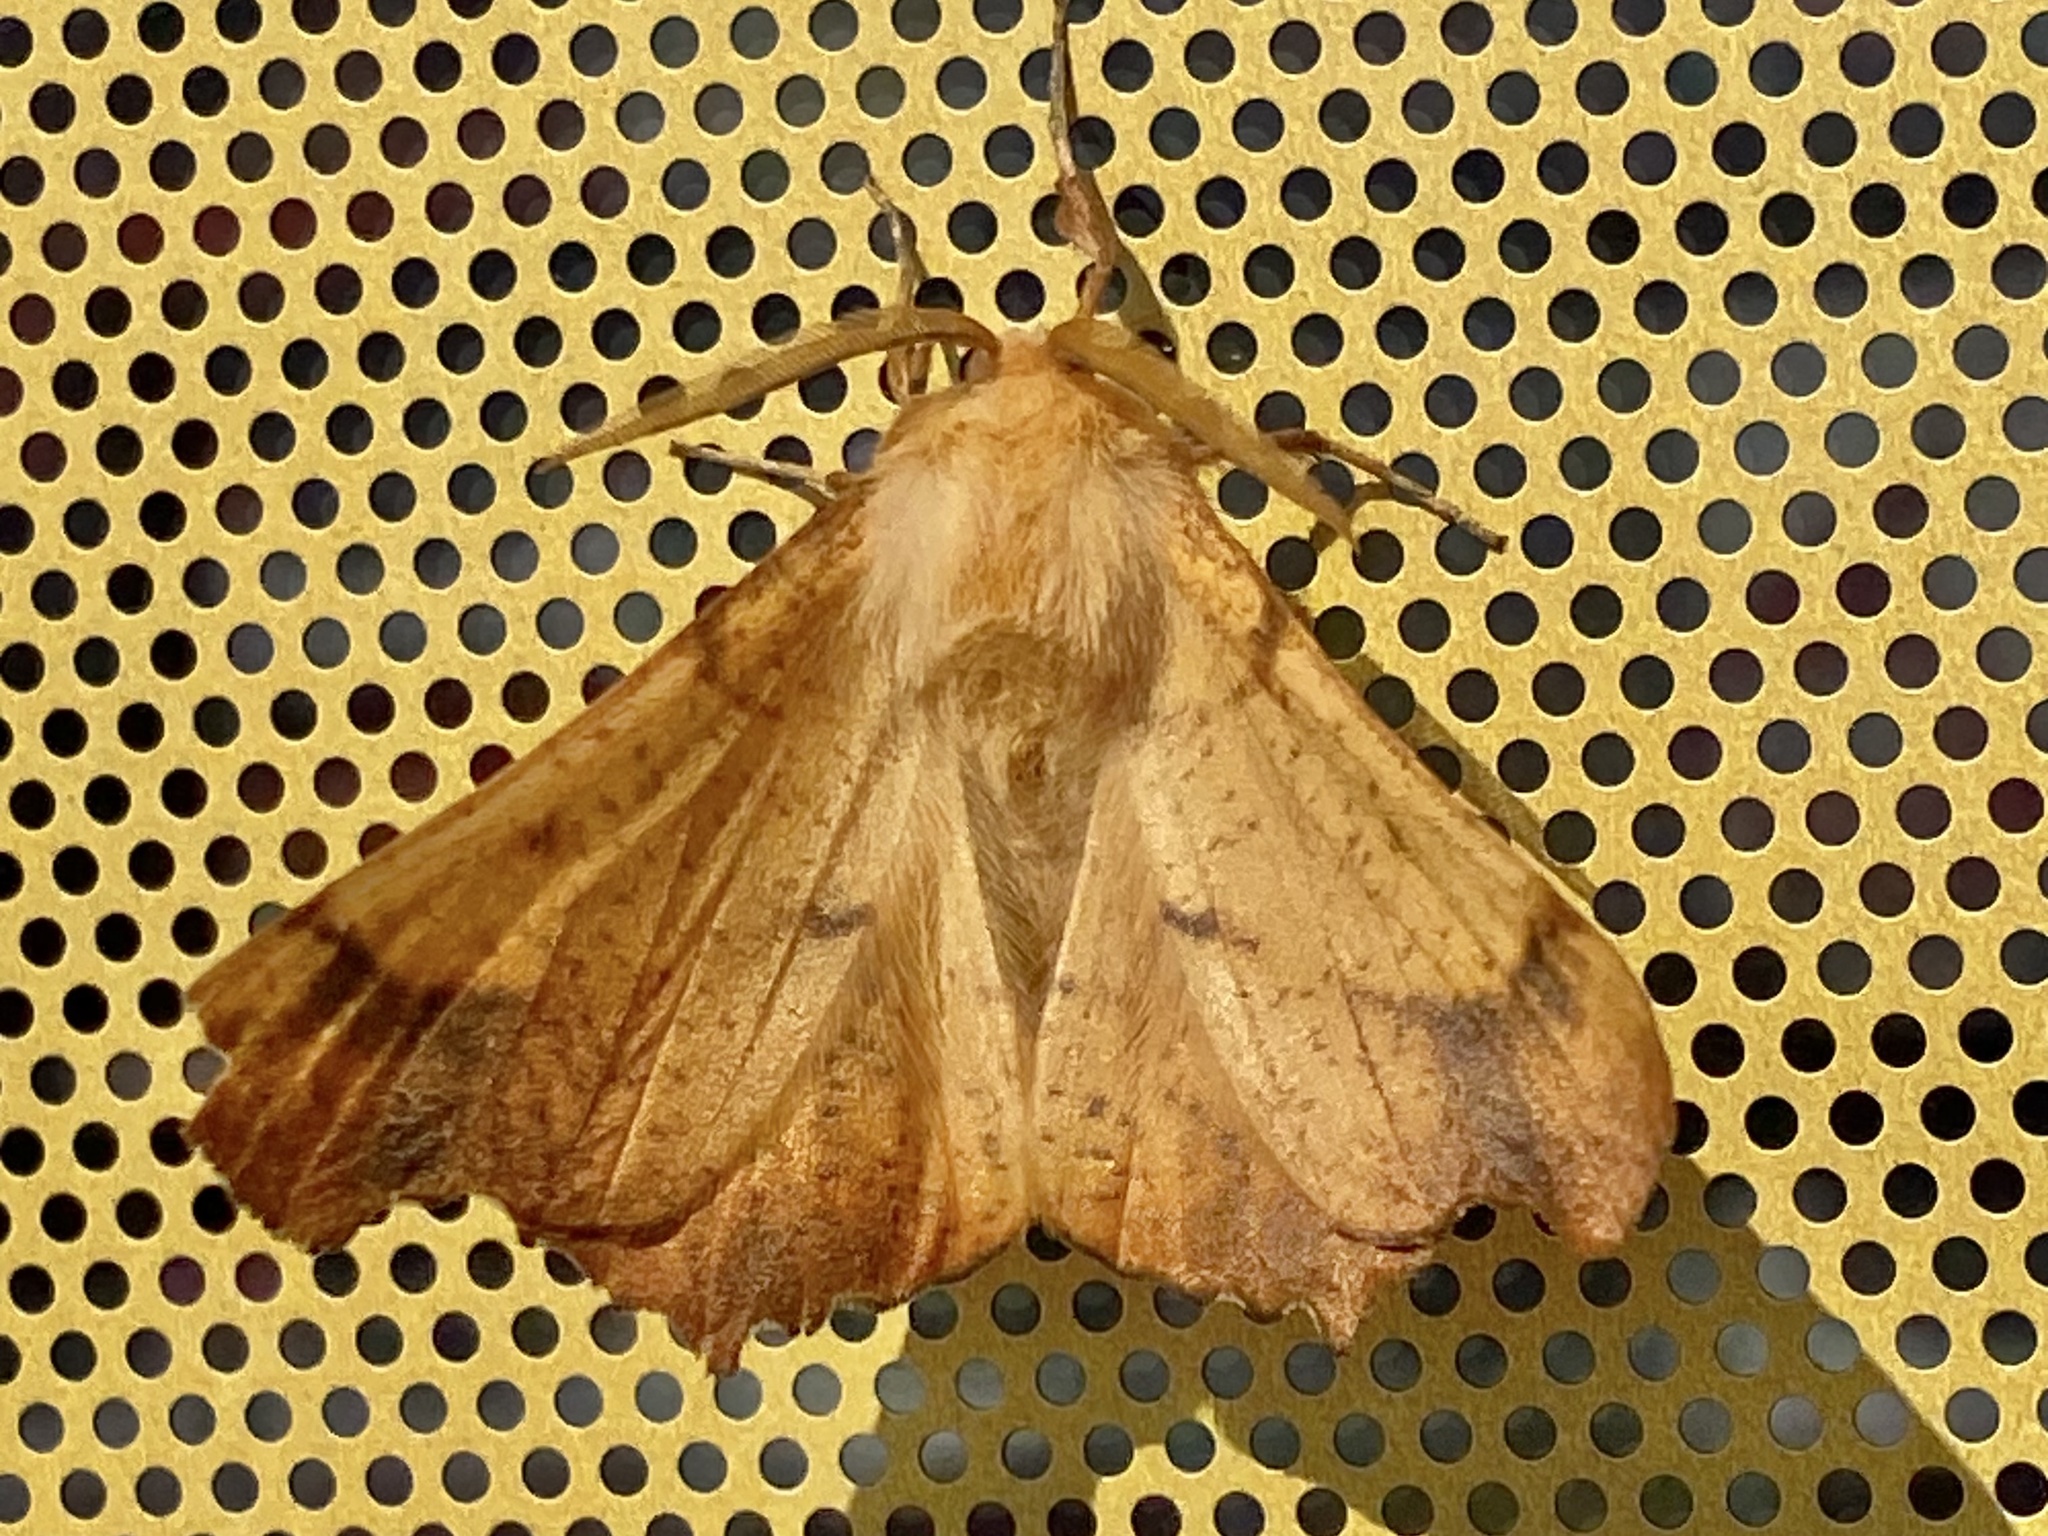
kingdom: Animalia
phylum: Arthropoda
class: Insecta
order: Lepidoptera
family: Geometridae
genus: Ennomos
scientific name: Ennomos magnaria
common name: Maple spanworm
